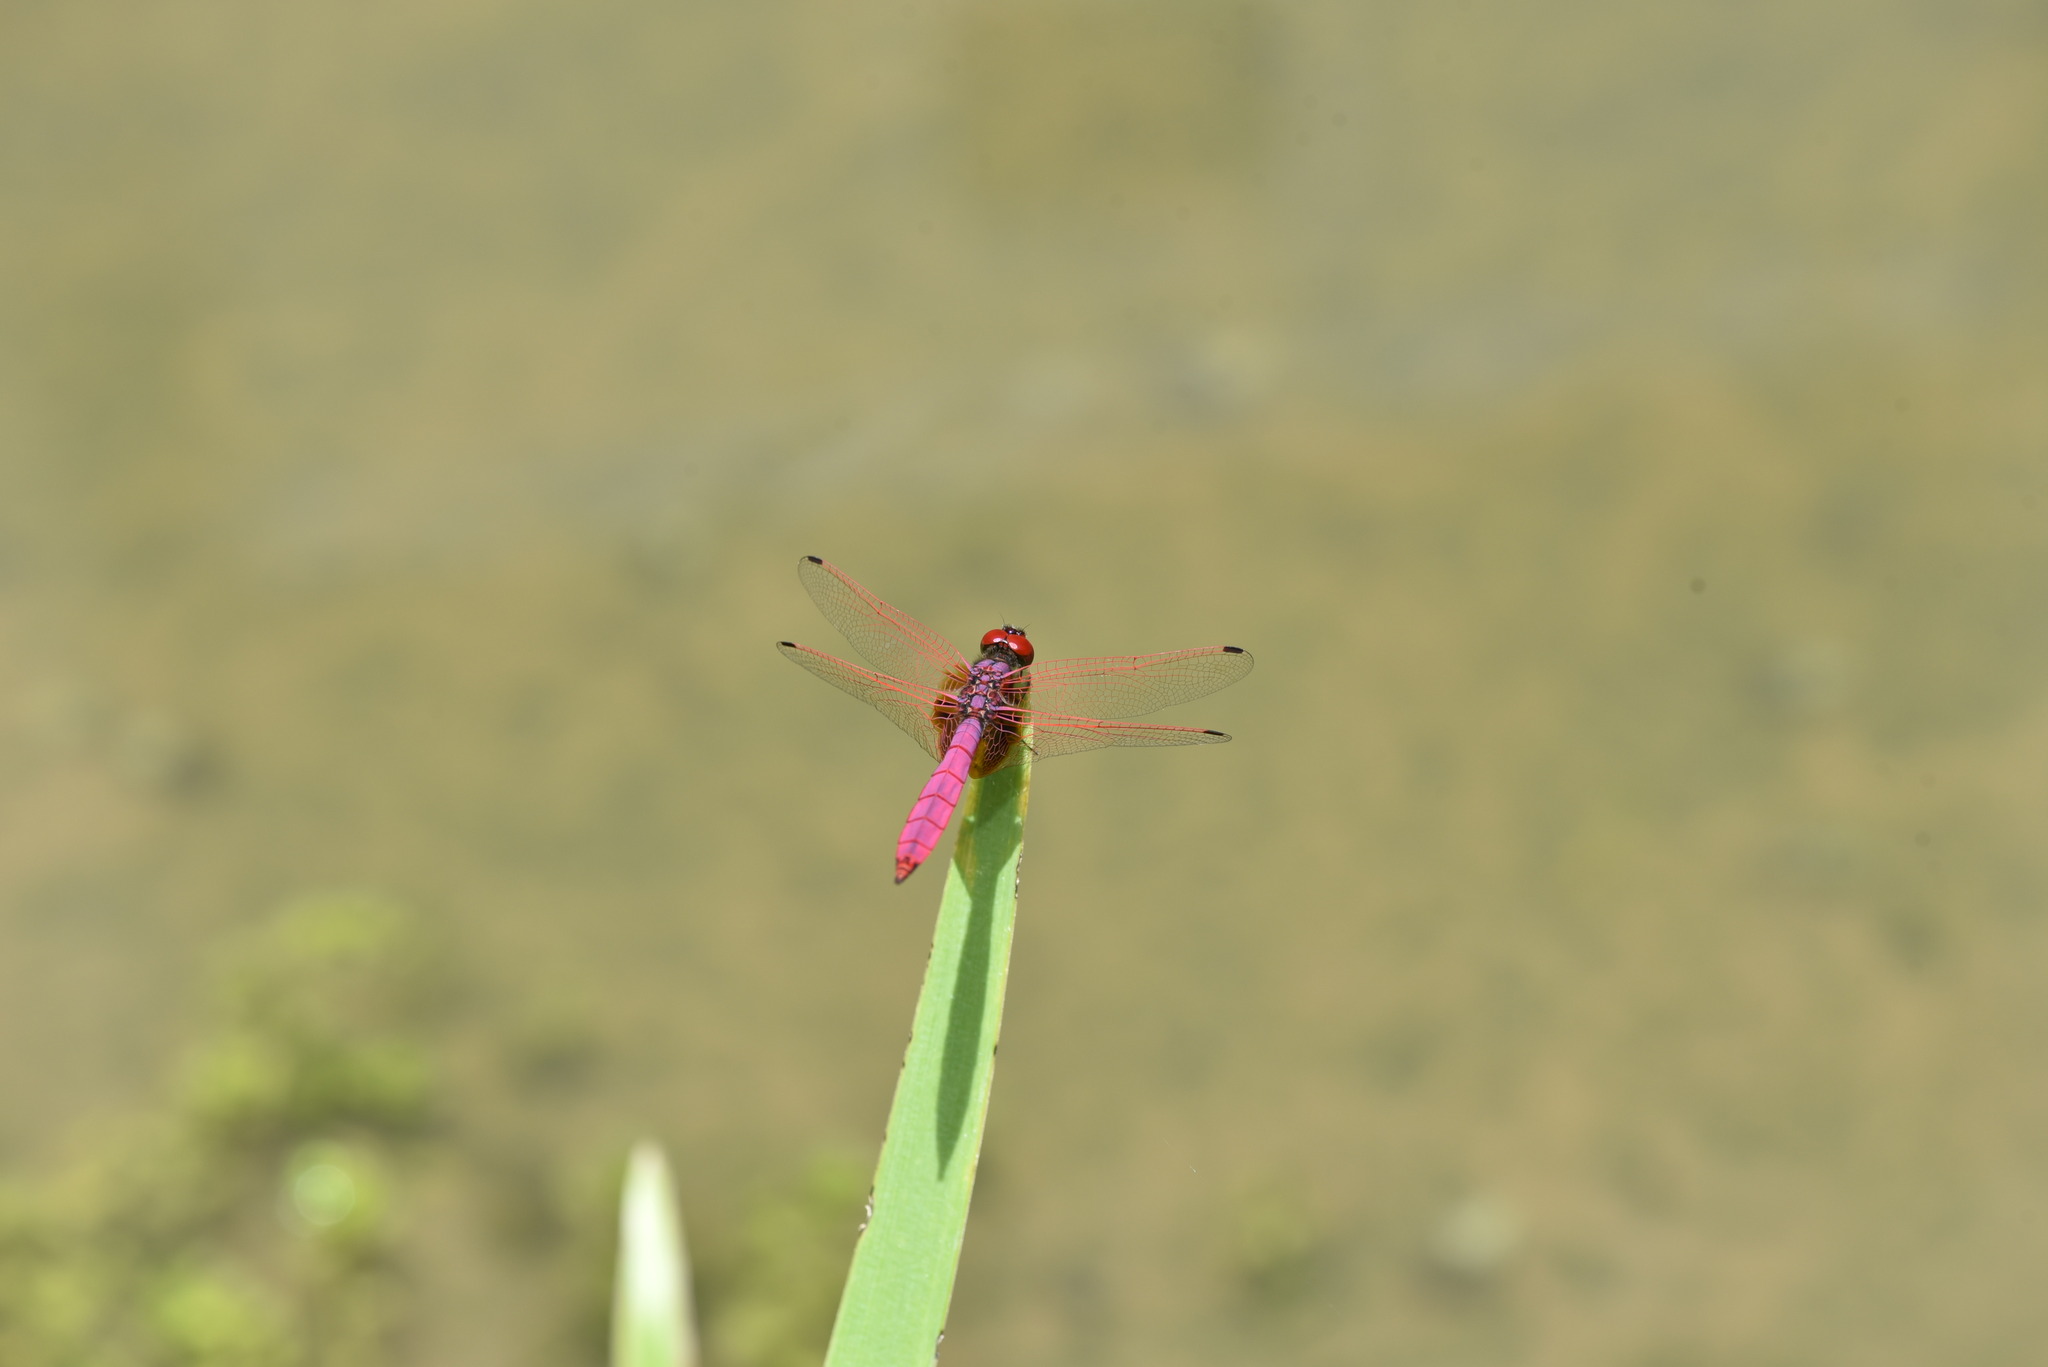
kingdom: Animalia
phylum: Arthropoda
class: Insecta
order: Odonata
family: Libellulidae
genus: Trithemis
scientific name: Trithemis aurora
